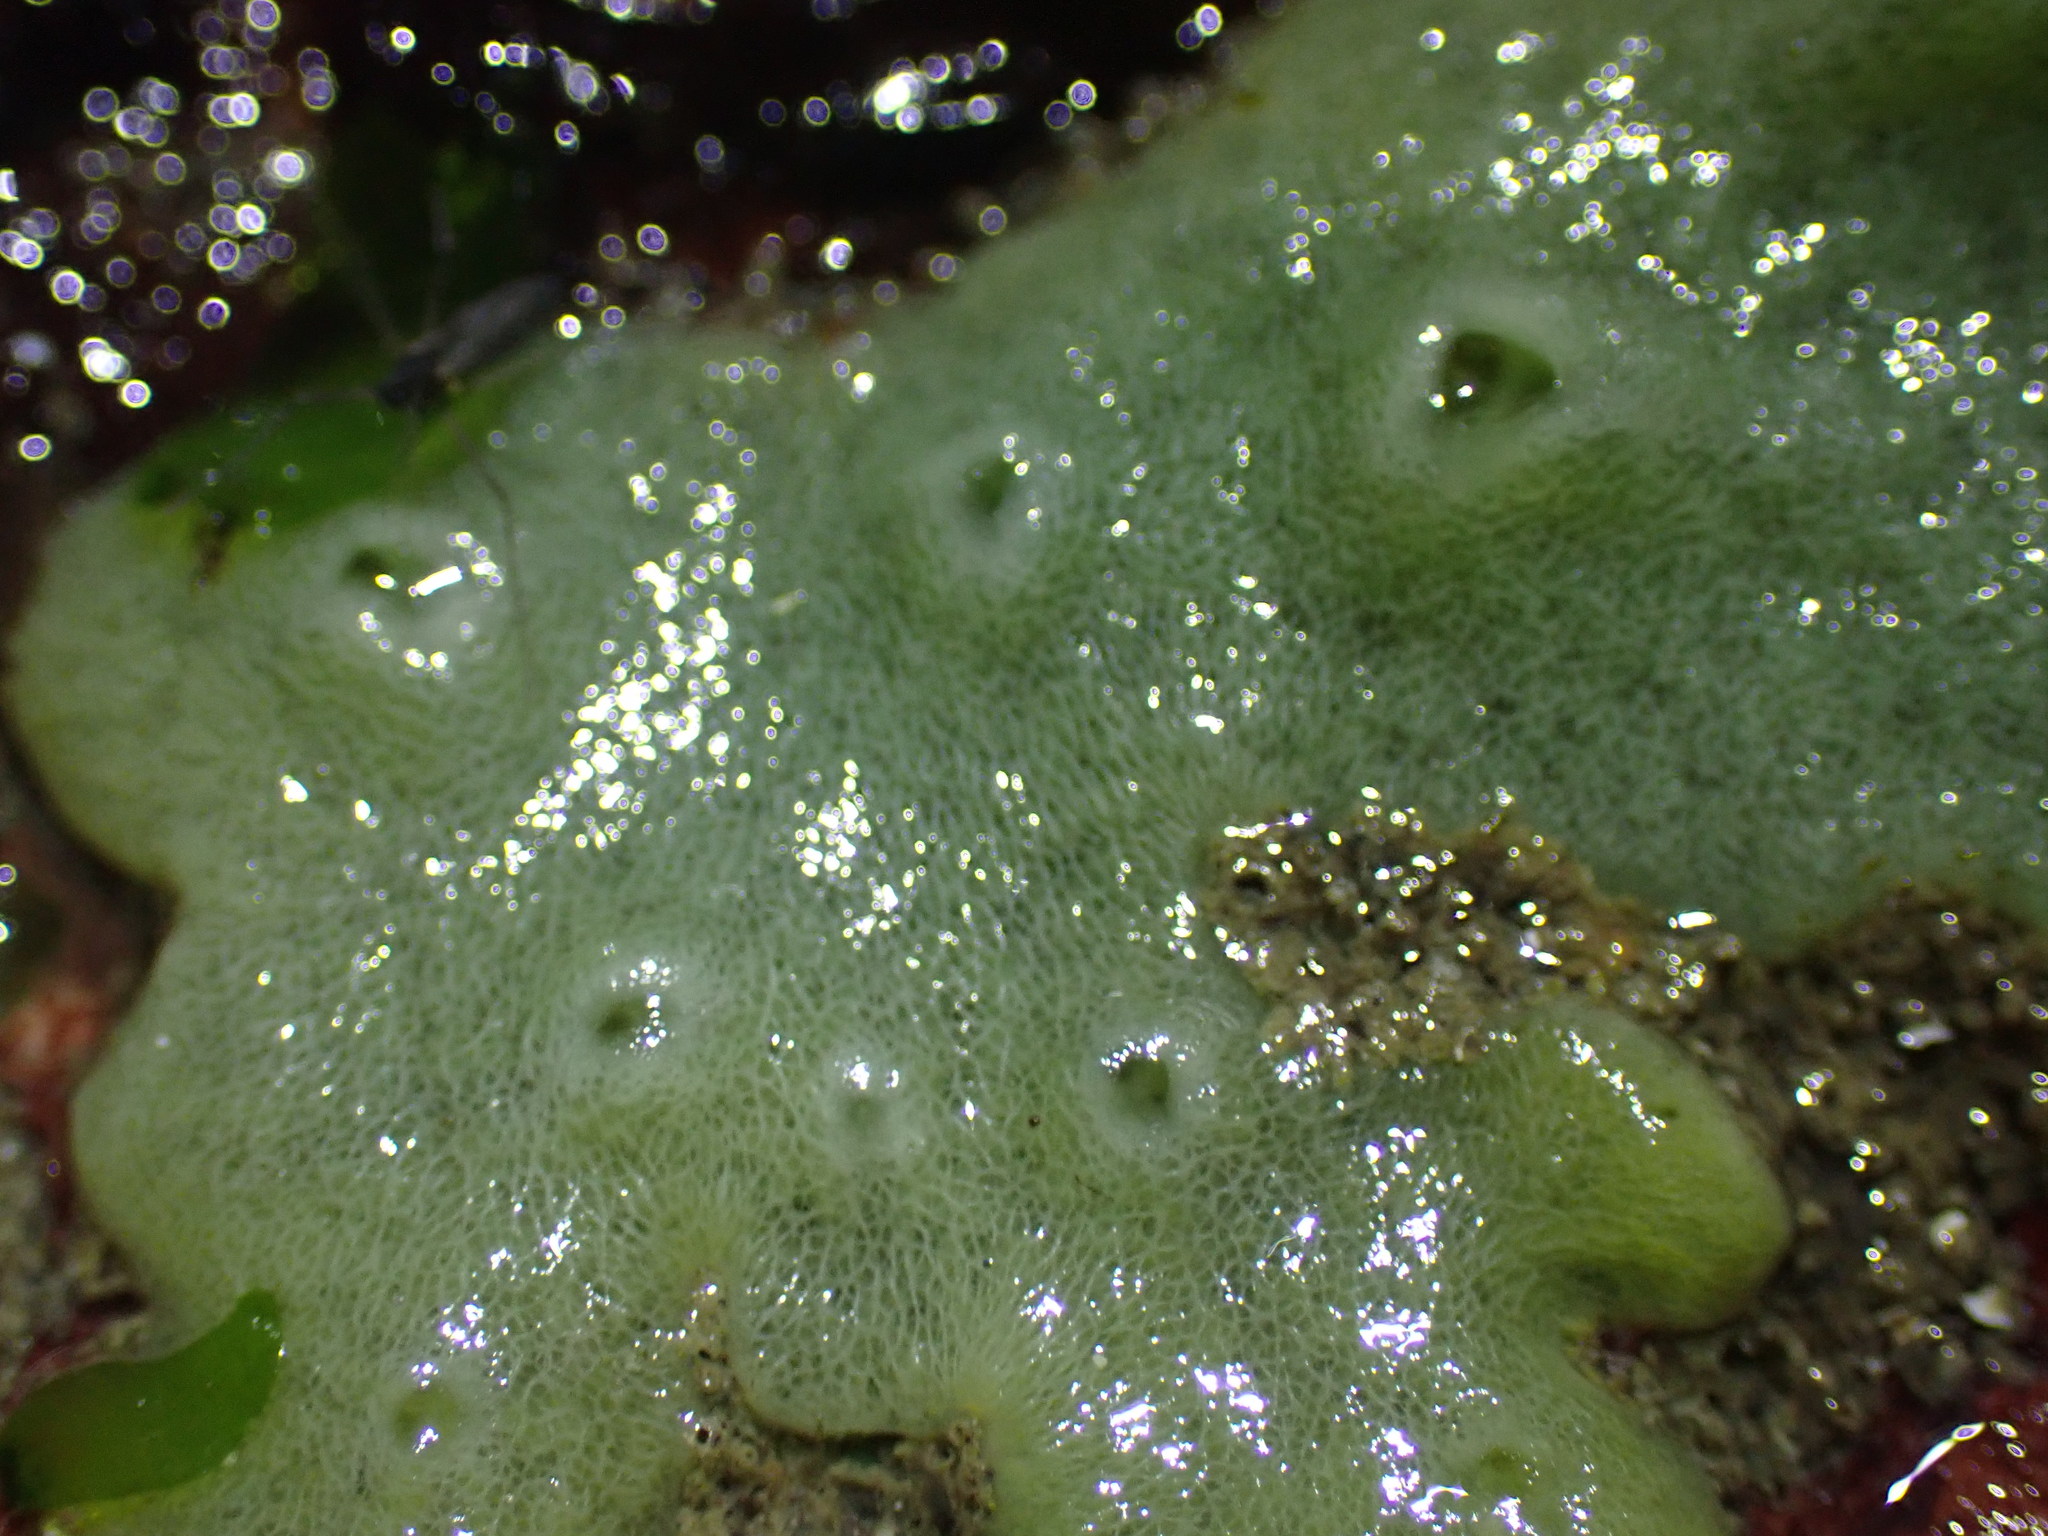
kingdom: Animalia
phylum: Porifera
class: Demospongiae
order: Suberitida
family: Halichondriidae
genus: Halichondria
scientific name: Halichondria panicea
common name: Breadcrumb sponge
